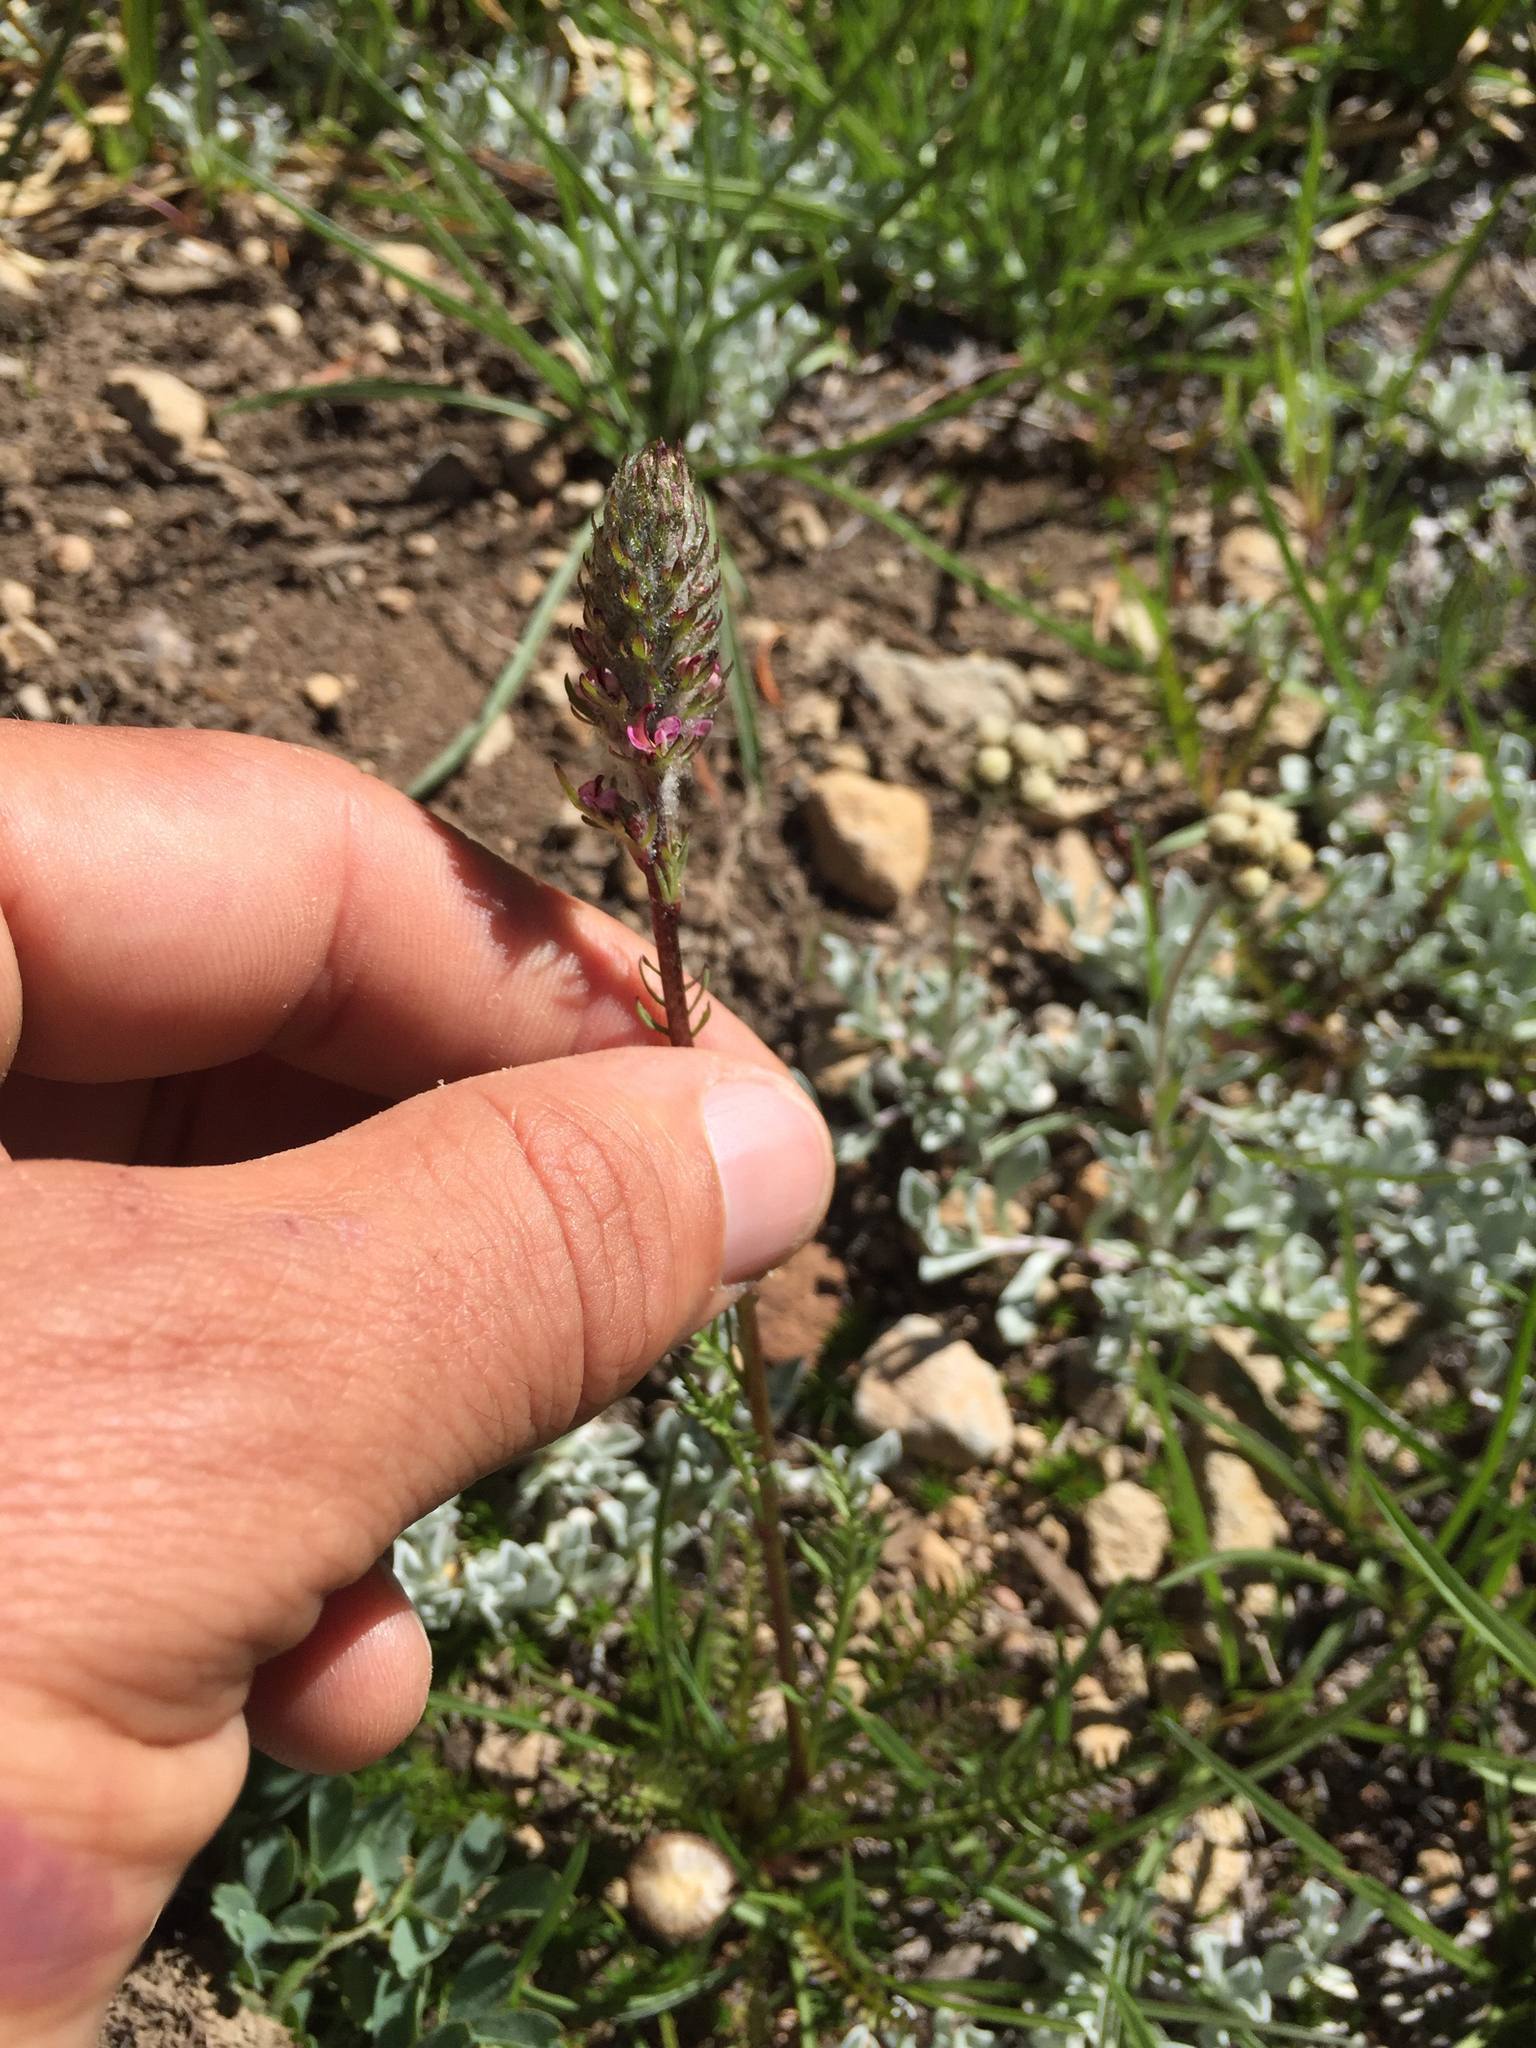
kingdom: Plantae
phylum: Tracheophyta
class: Magnoliopsida
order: Lamiales
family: Orobanchaceae
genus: Pedicularis
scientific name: Pedicularis attollens
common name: Slender pedicularis
